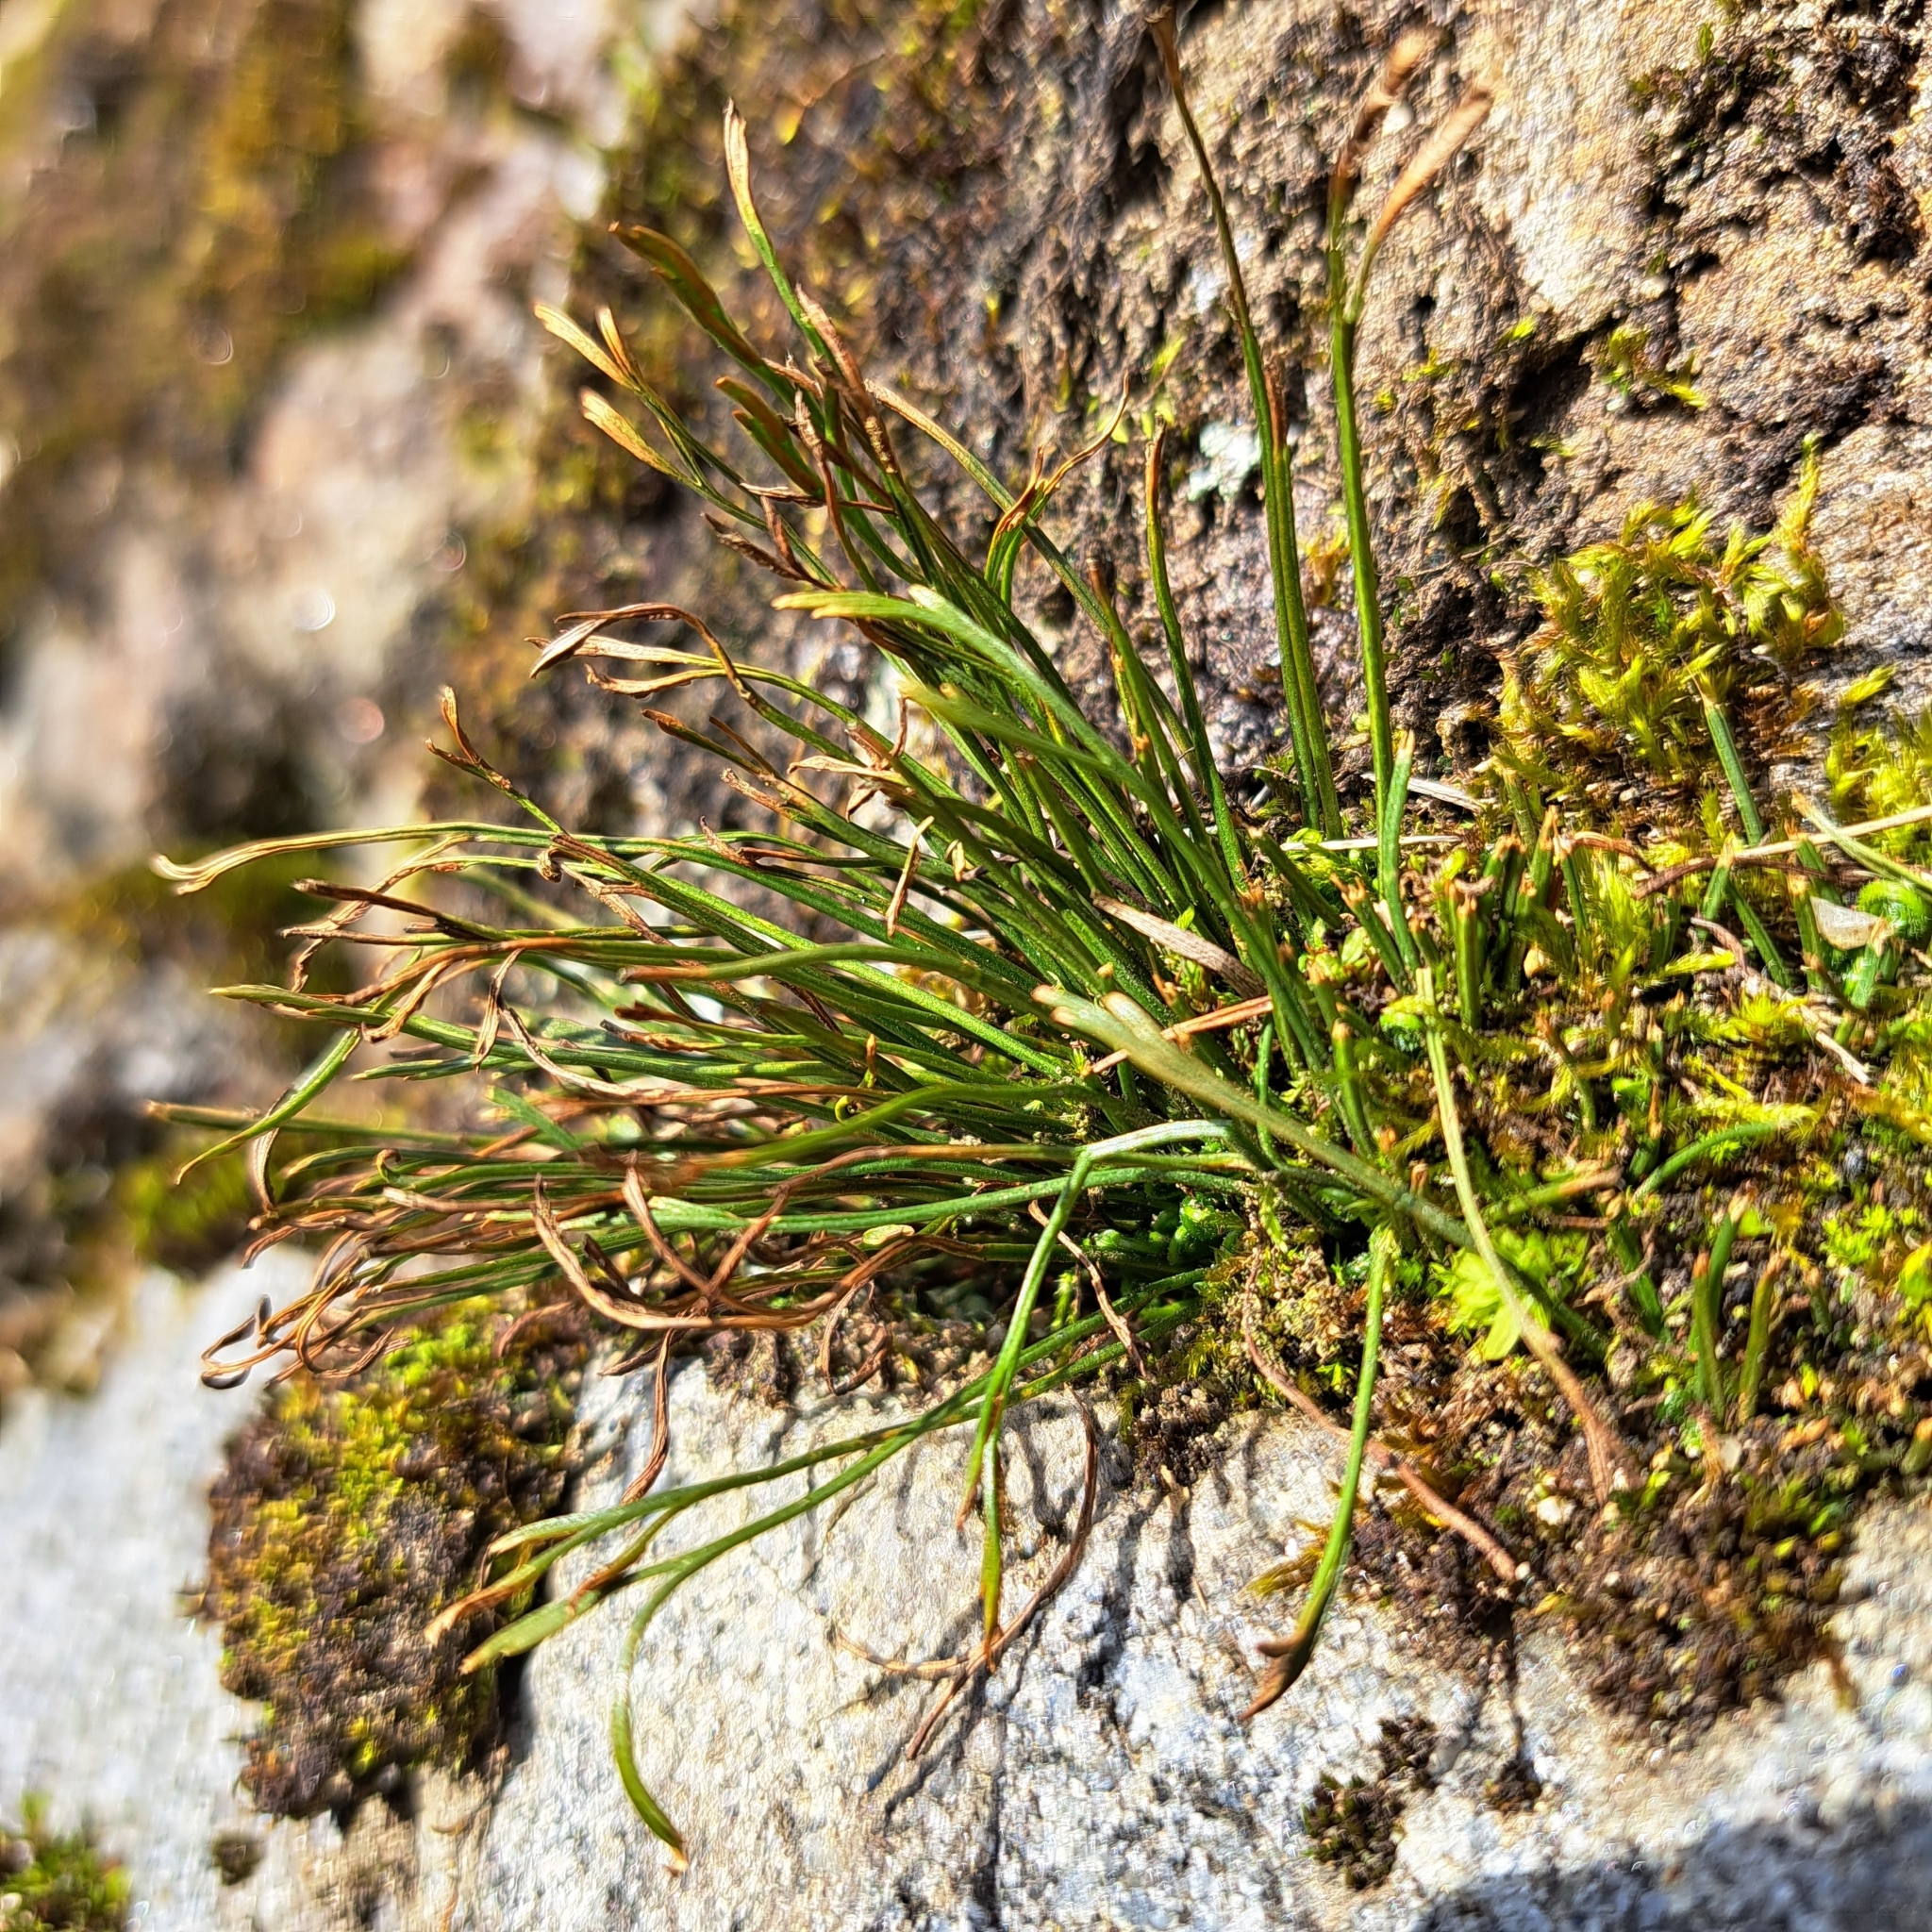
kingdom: Plantae
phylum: Tracheophyta
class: Polypodiopsida
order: Polypodiales
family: Aspleniaceae
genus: Asplenium
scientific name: Asplenium septentrionale
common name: Forked spleenwort
